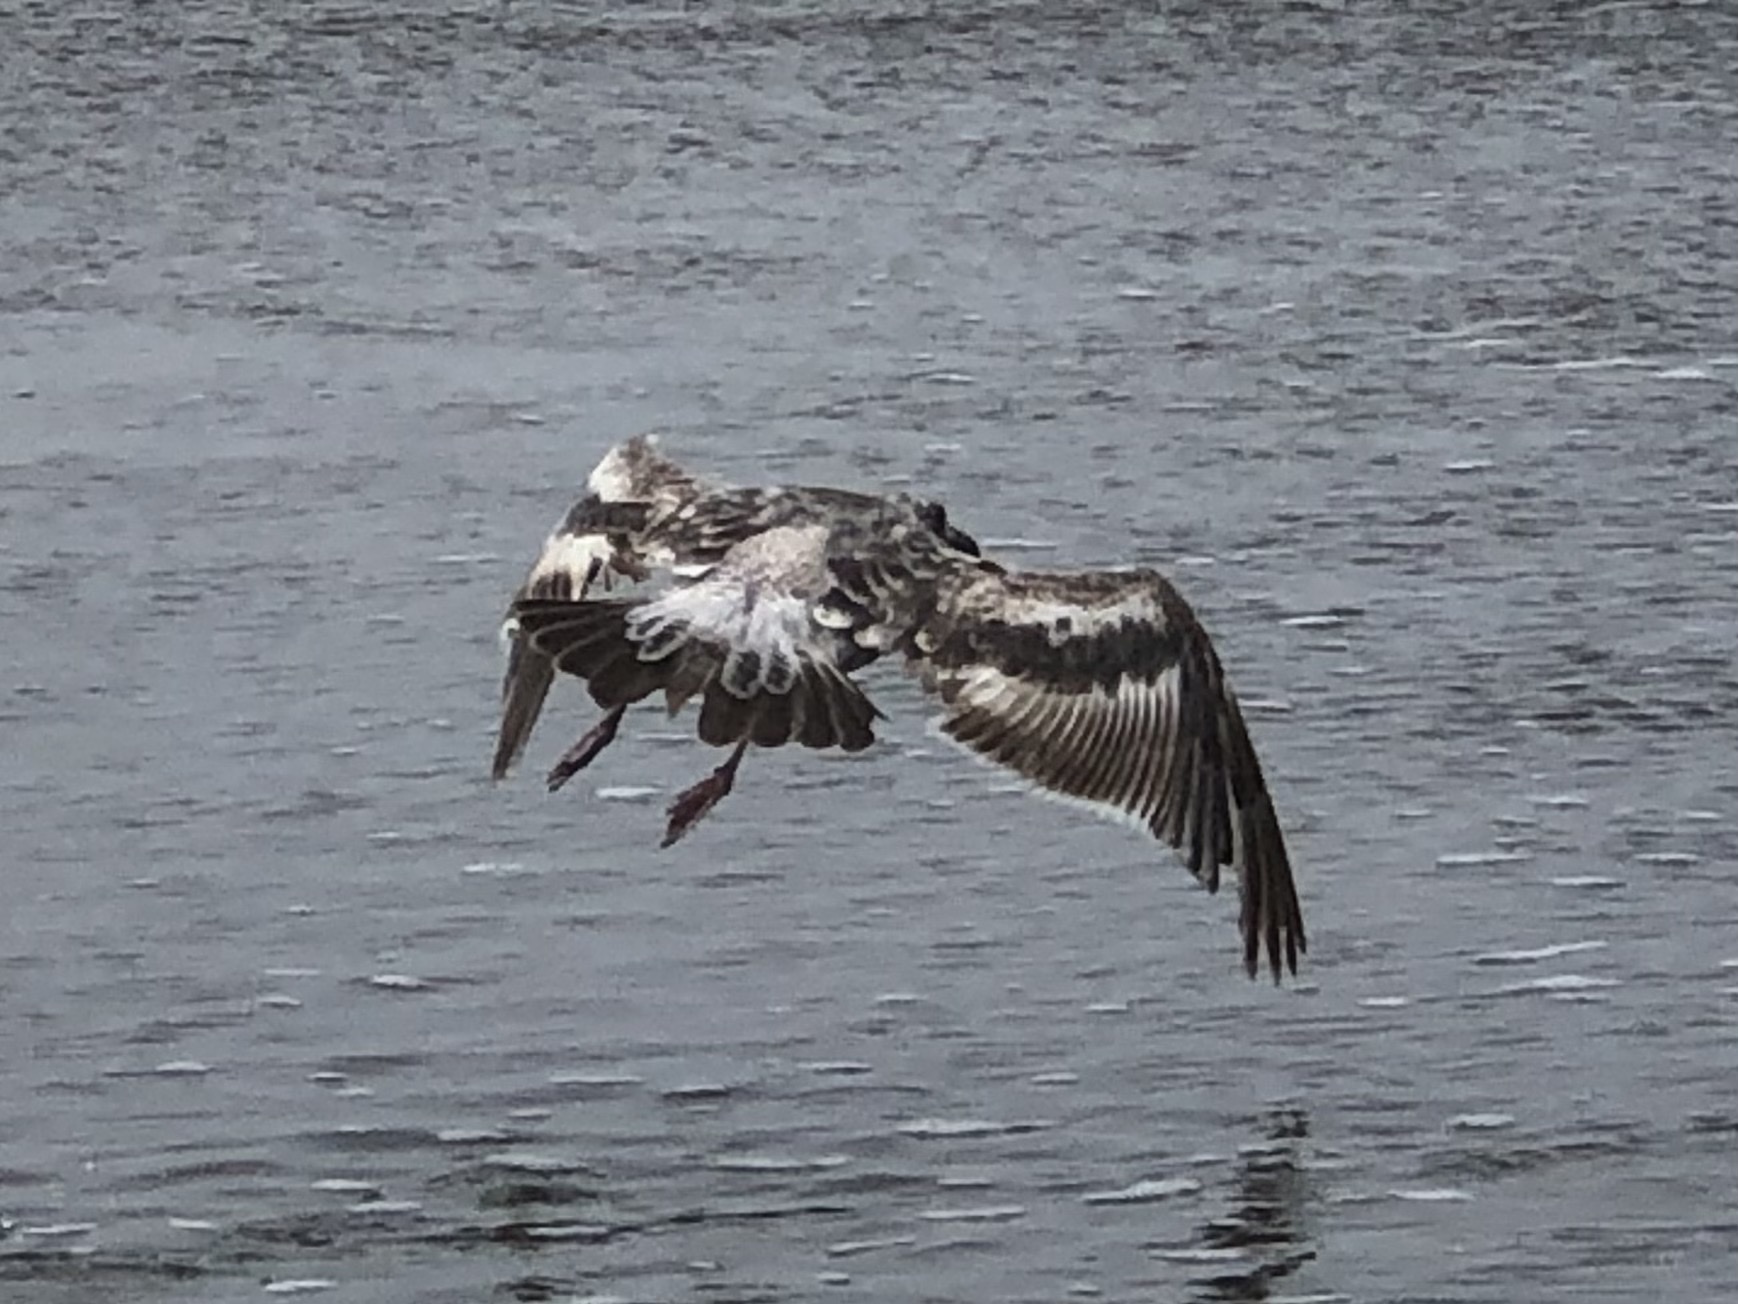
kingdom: Animalia
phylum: Chordata
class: Aves
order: Charadriiformes
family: Laridae
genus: Larus
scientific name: Larus occidentalis
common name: Western gull
